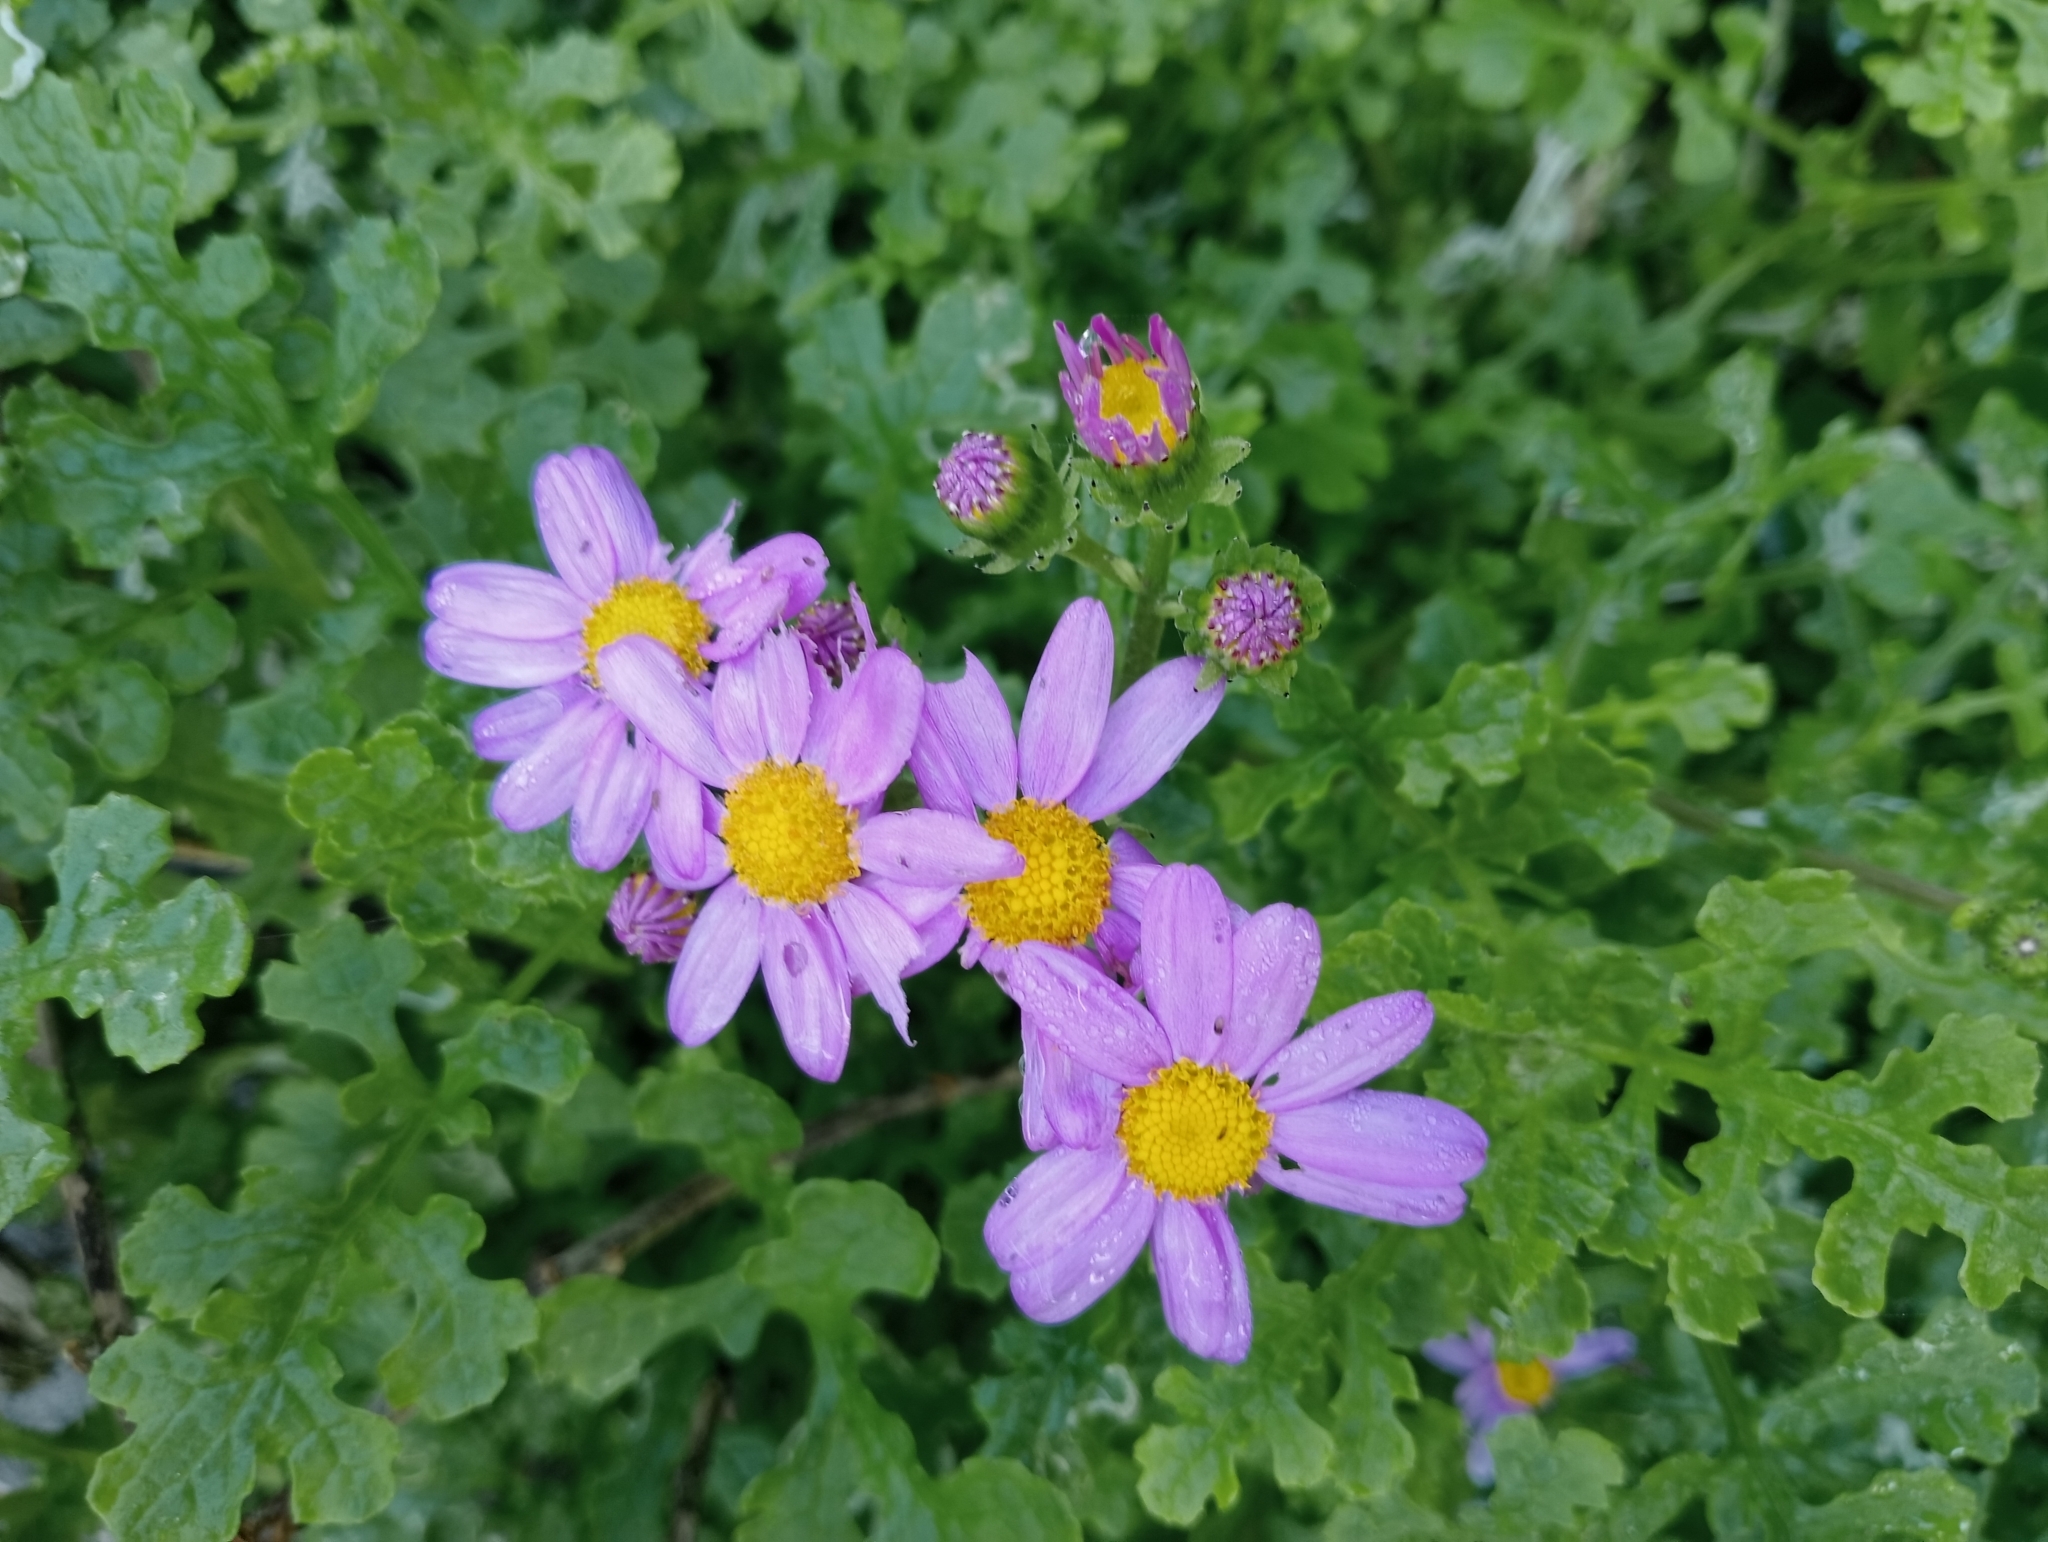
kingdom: Plantae
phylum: Tracheophyta
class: Magnoliopsida
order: Asterales
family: Asteraceae
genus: Senecio
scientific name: Senecio elegans
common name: Purple groundsel
